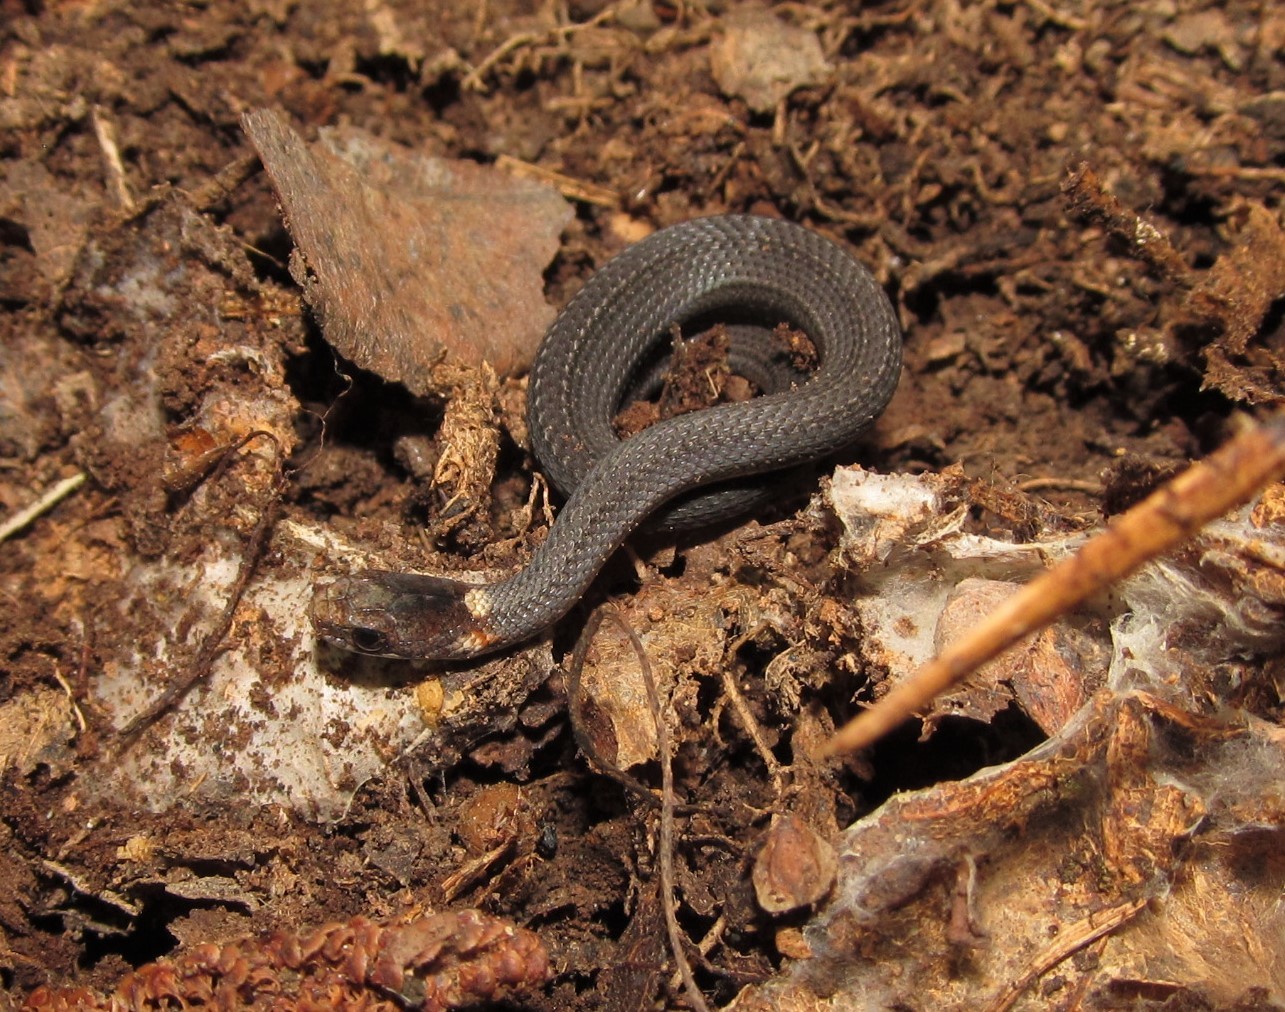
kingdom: Animalia
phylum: Chordata
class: Squamata
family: Colubridae
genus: Storeria
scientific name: Storeria occipitomaculata
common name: Redbelly snake
